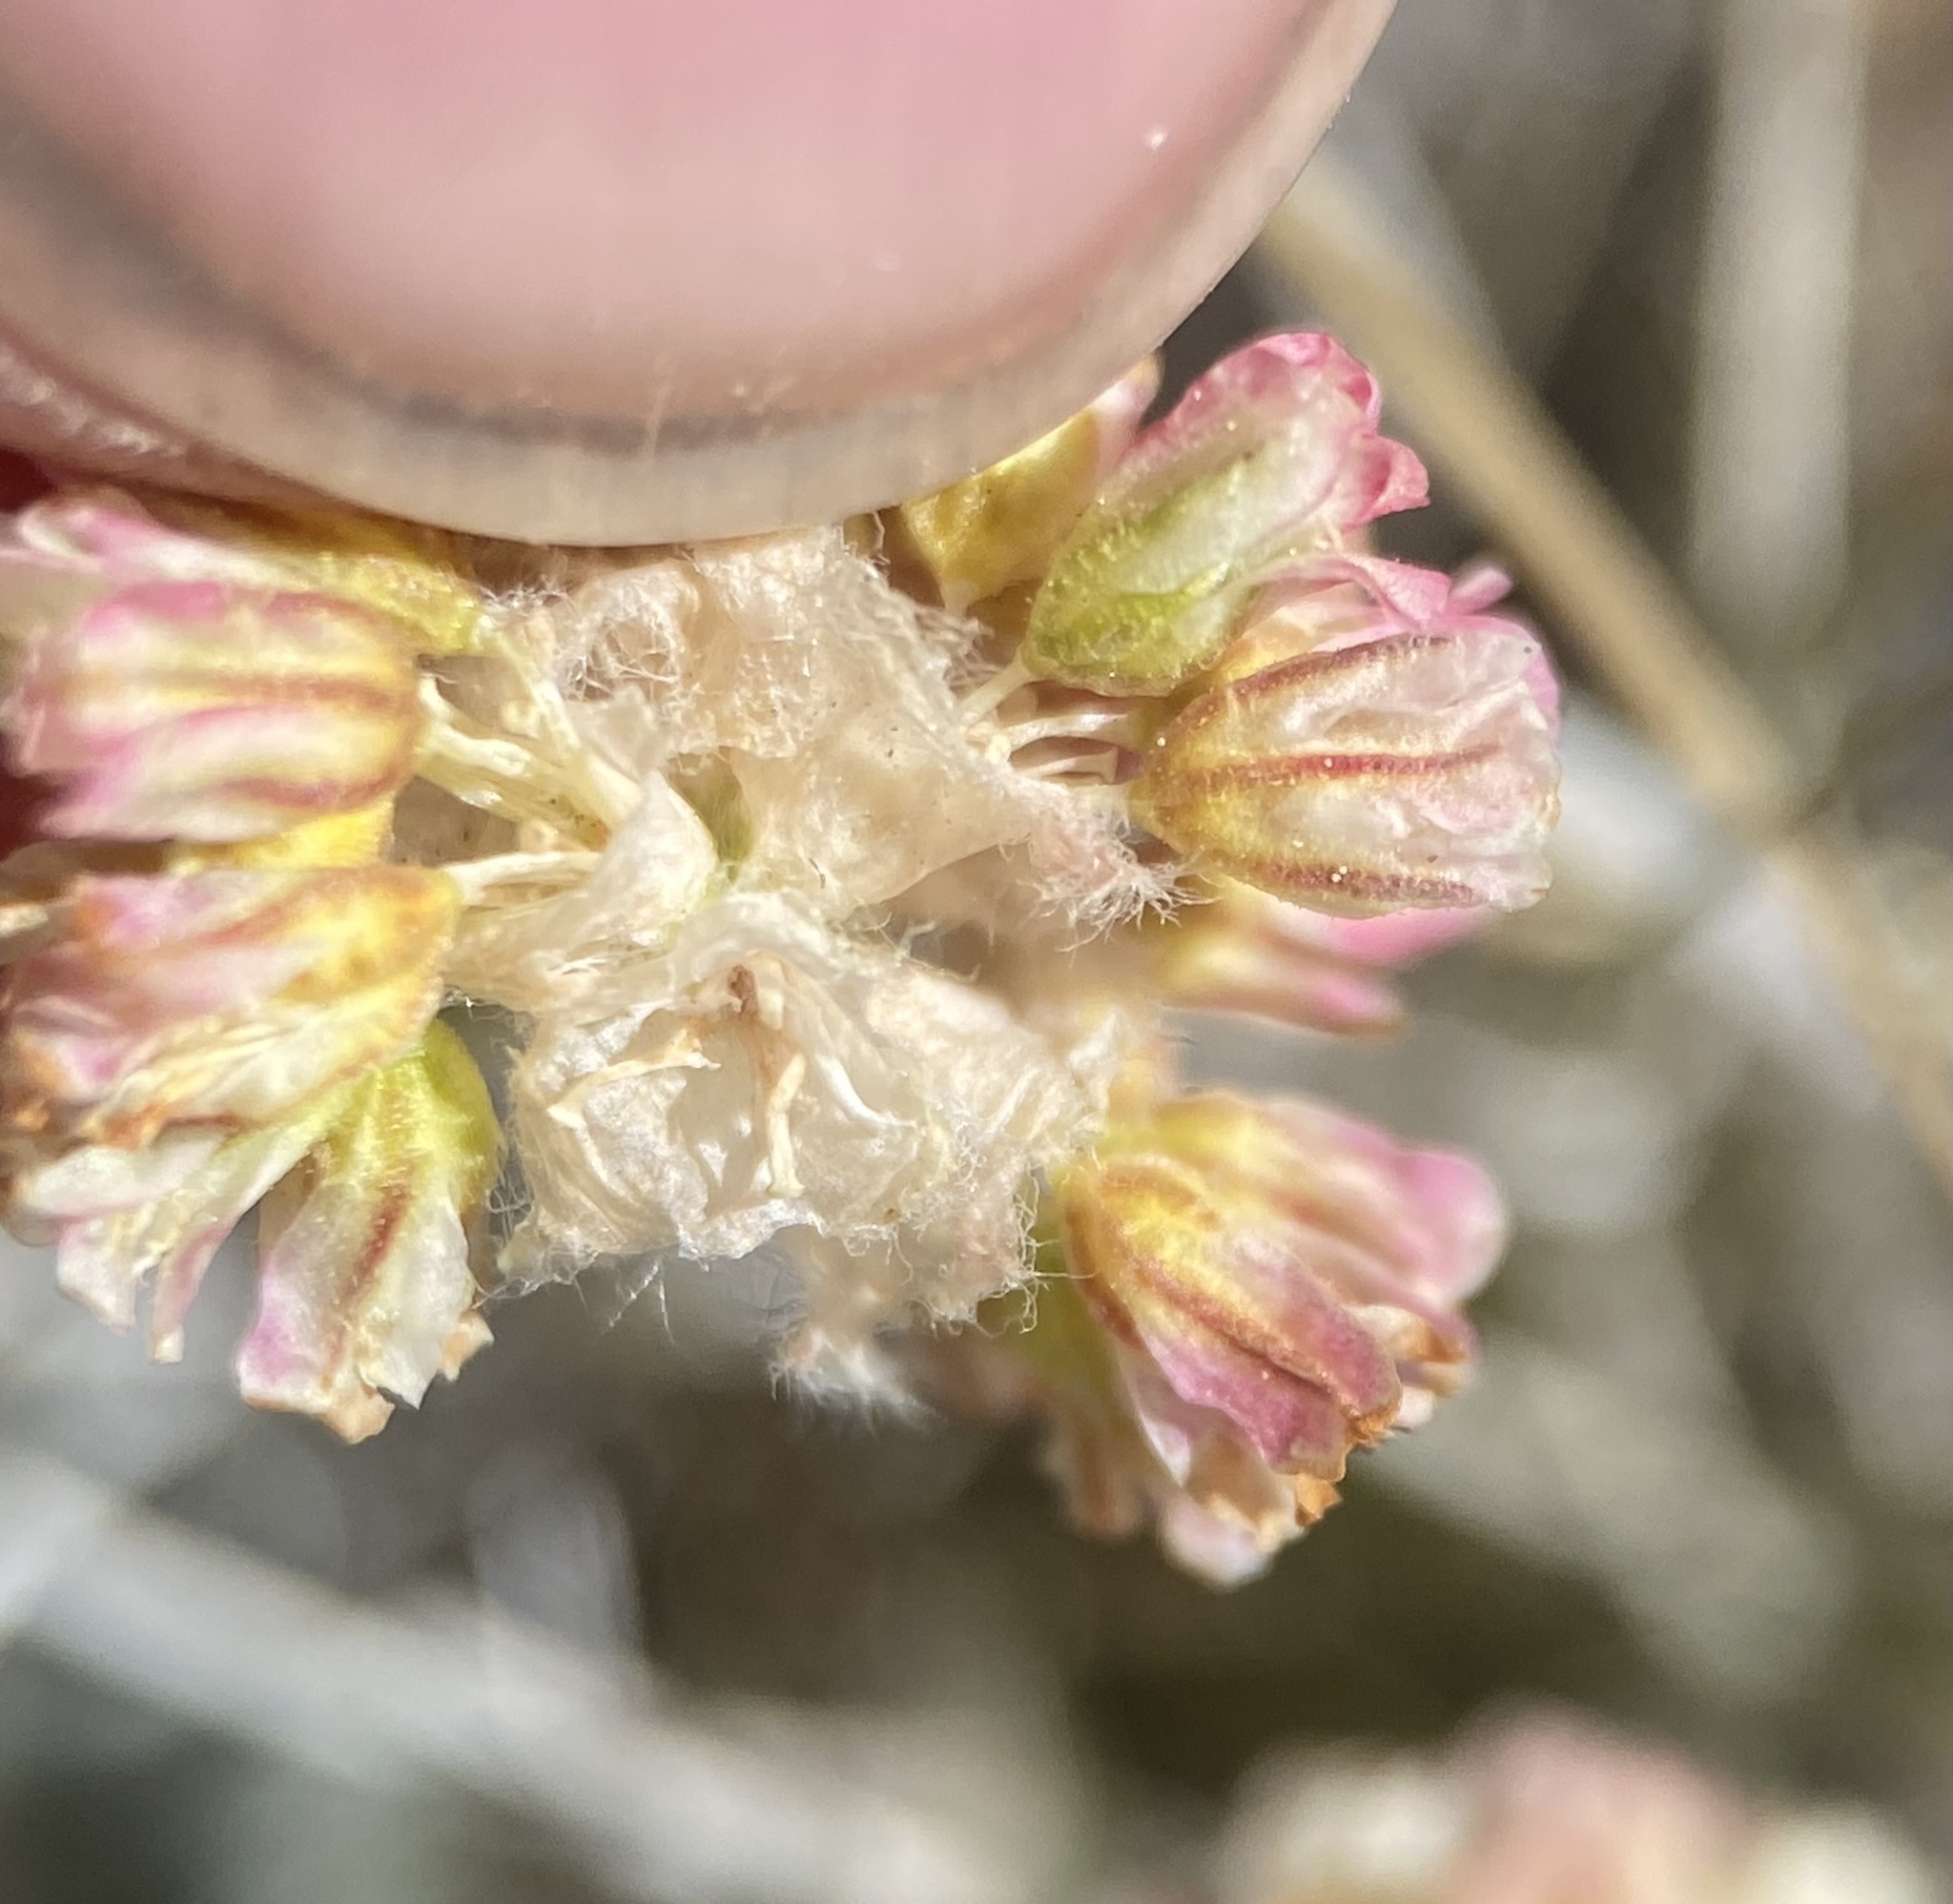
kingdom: Plantae
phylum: Tracheophyta
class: Magnoliopsida
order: Caryophyllales
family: Polygonaceae
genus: Eriogonum
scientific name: Eriogonum kingii
